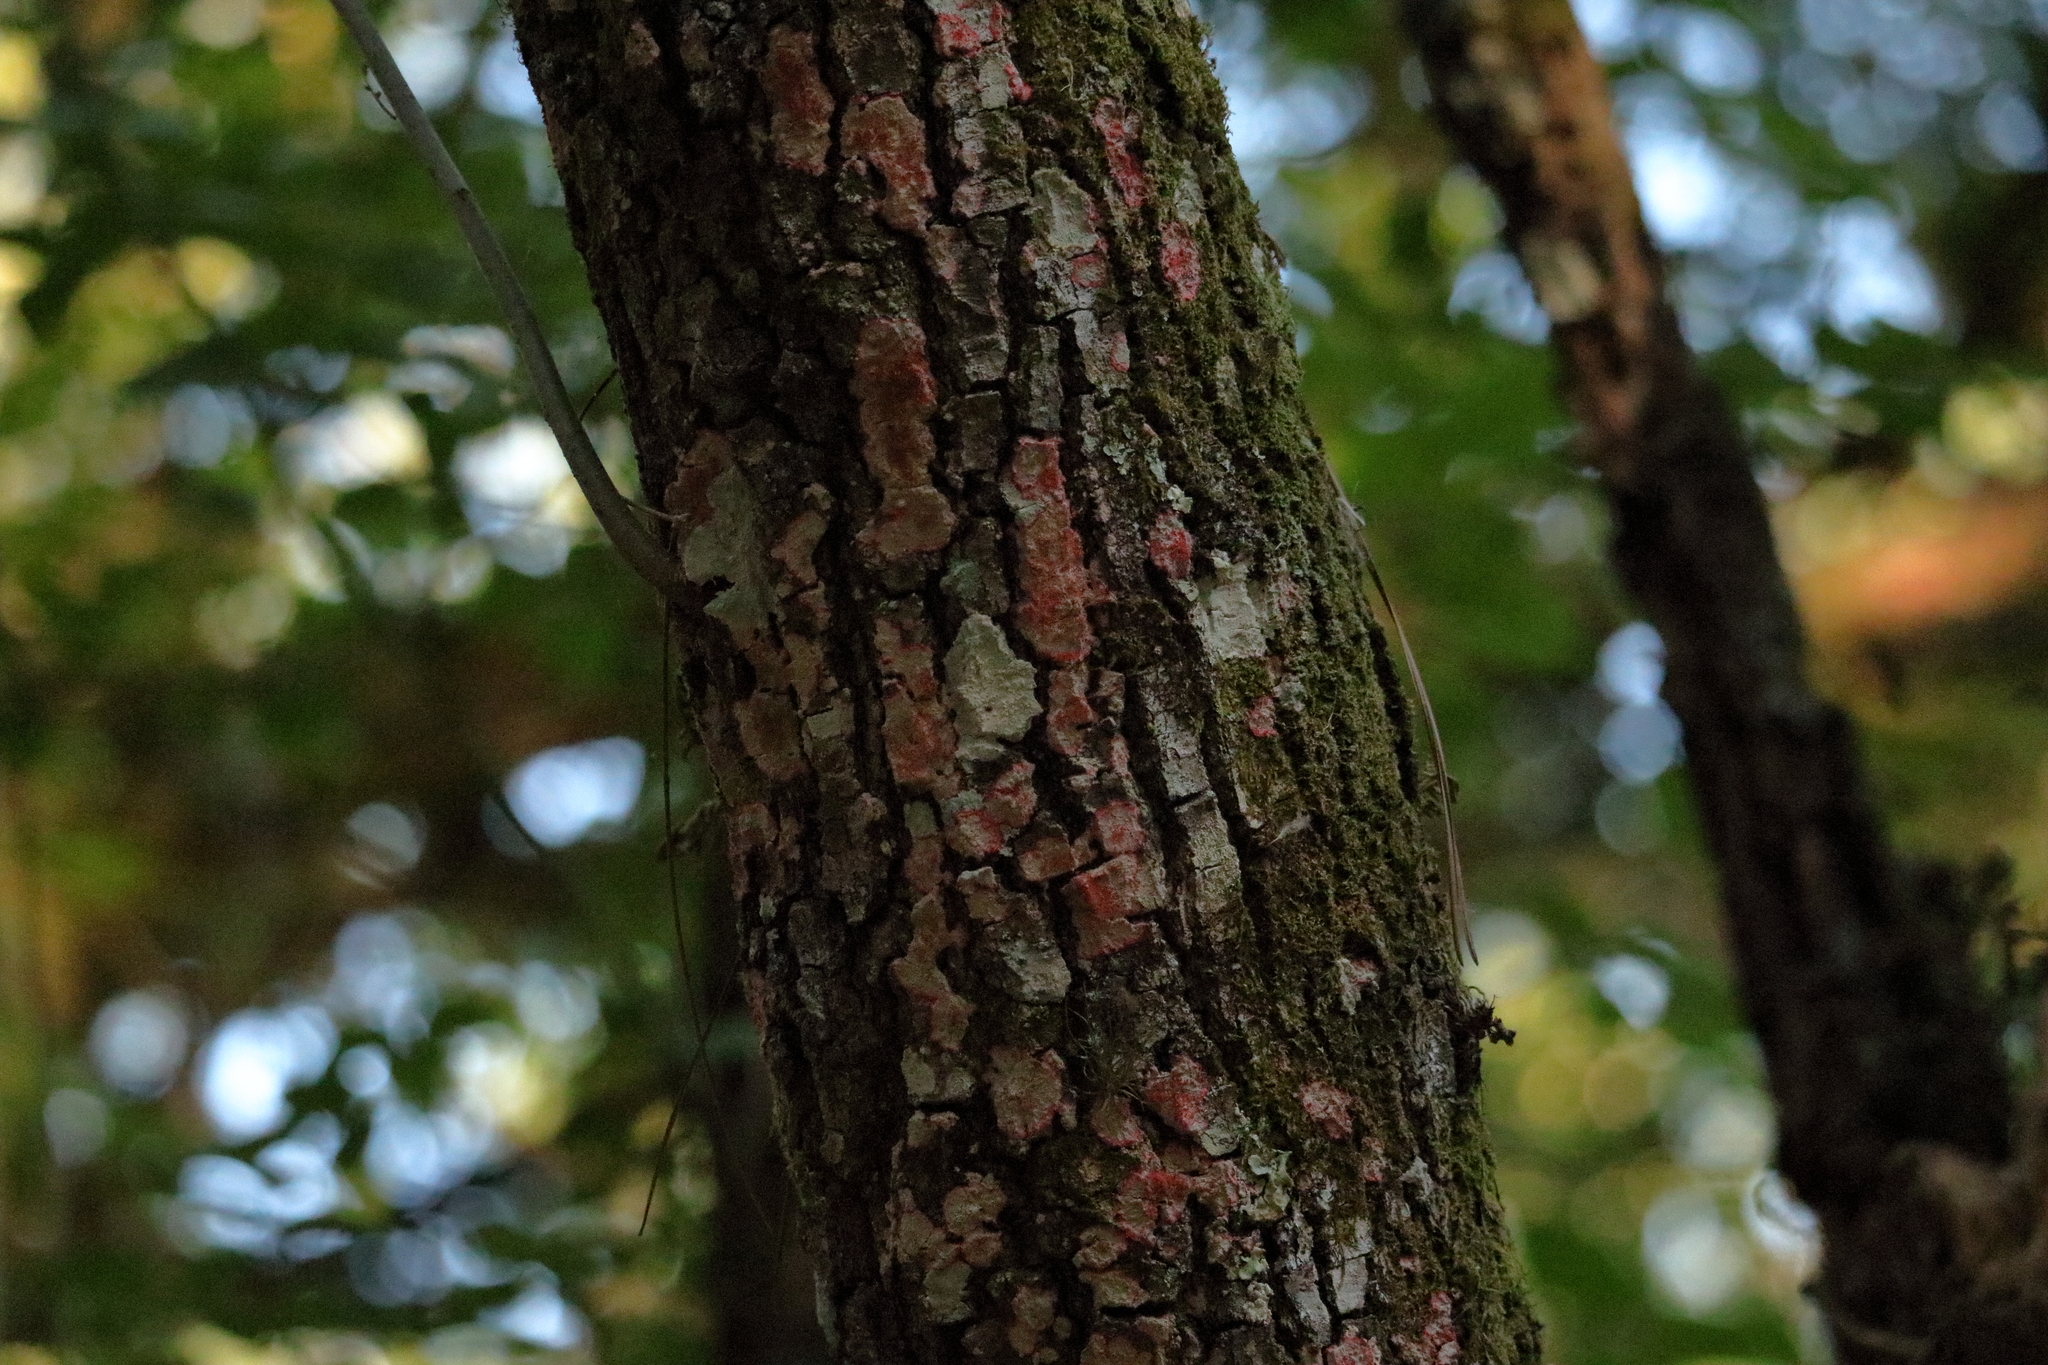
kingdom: Fungi
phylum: Ascomycota
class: Arthoniomycetes
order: Arthoniales
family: Arthoniaceae
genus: Herpothallon
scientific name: Herpothallon rubrocinctum
